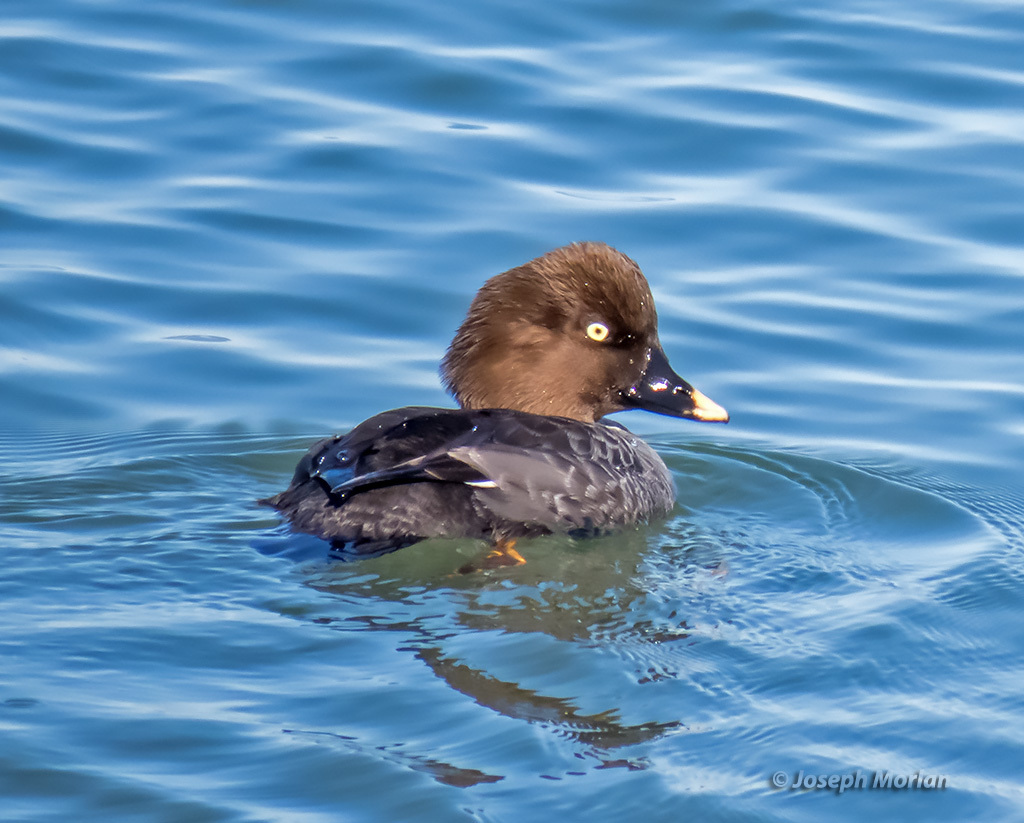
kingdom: Animalia
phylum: Chordata
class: Aves
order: Anseriformes
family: Anatidae
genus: Bucephala
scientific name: Bucephala clangula
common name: Common goldeneye
